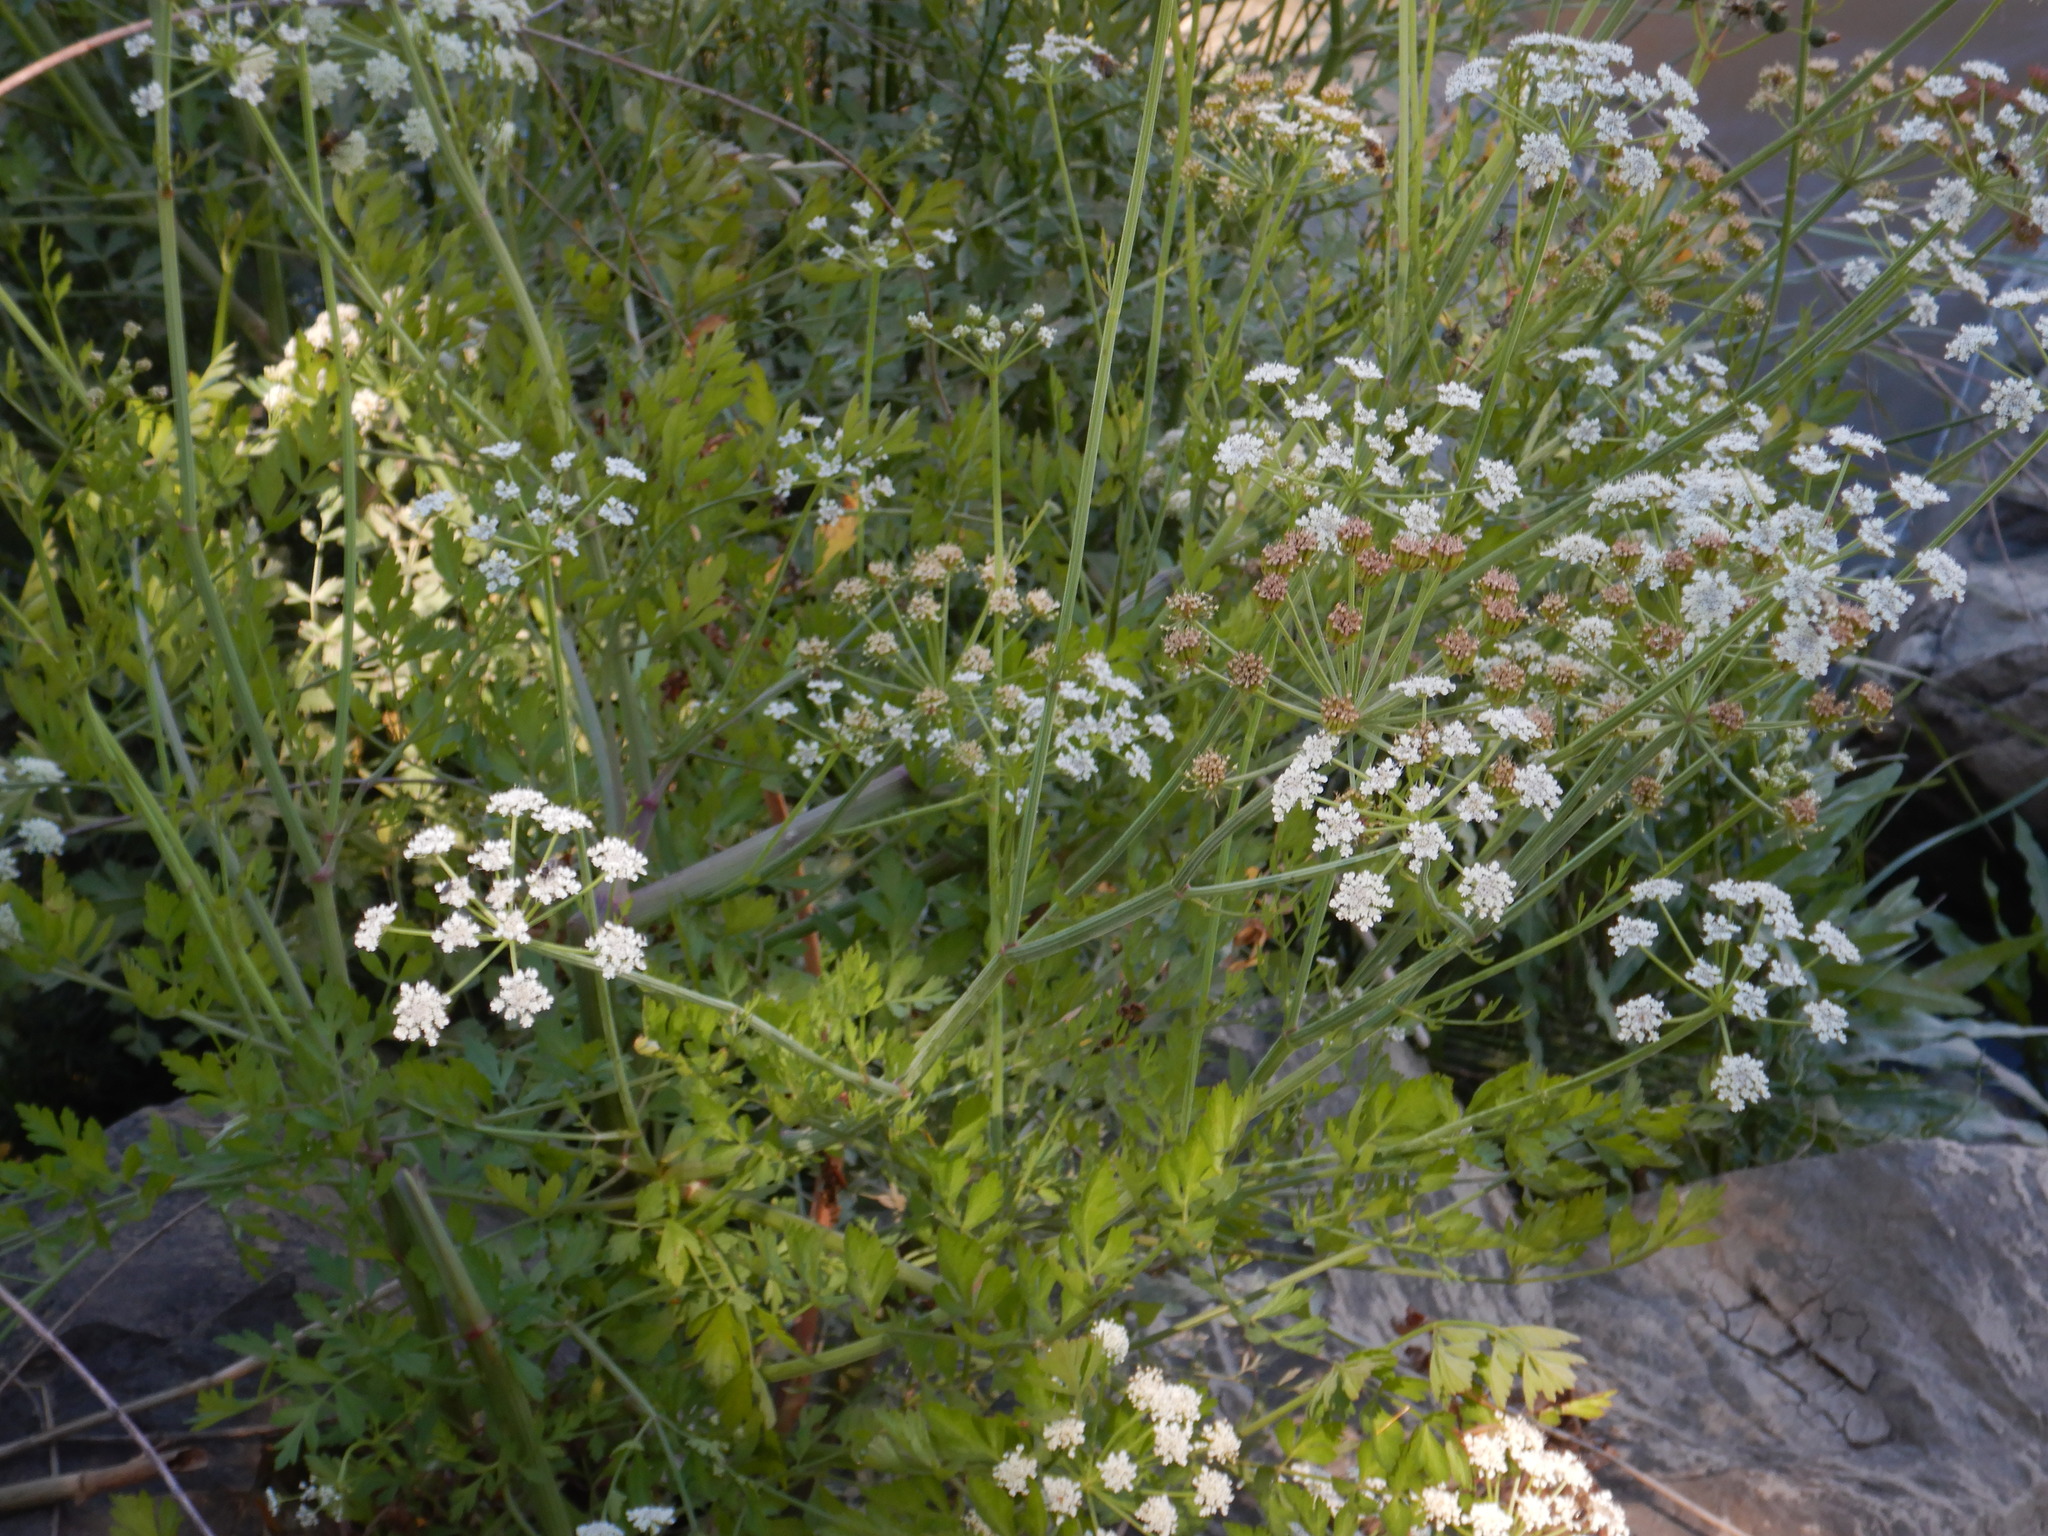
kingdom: Plantae
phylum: Tracheophyta
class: Magnoliopsida
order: Apiales
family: Apiaceae
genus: Oenanthe
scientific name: Oenanthe crocata
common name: Hemlock water-dropwort
